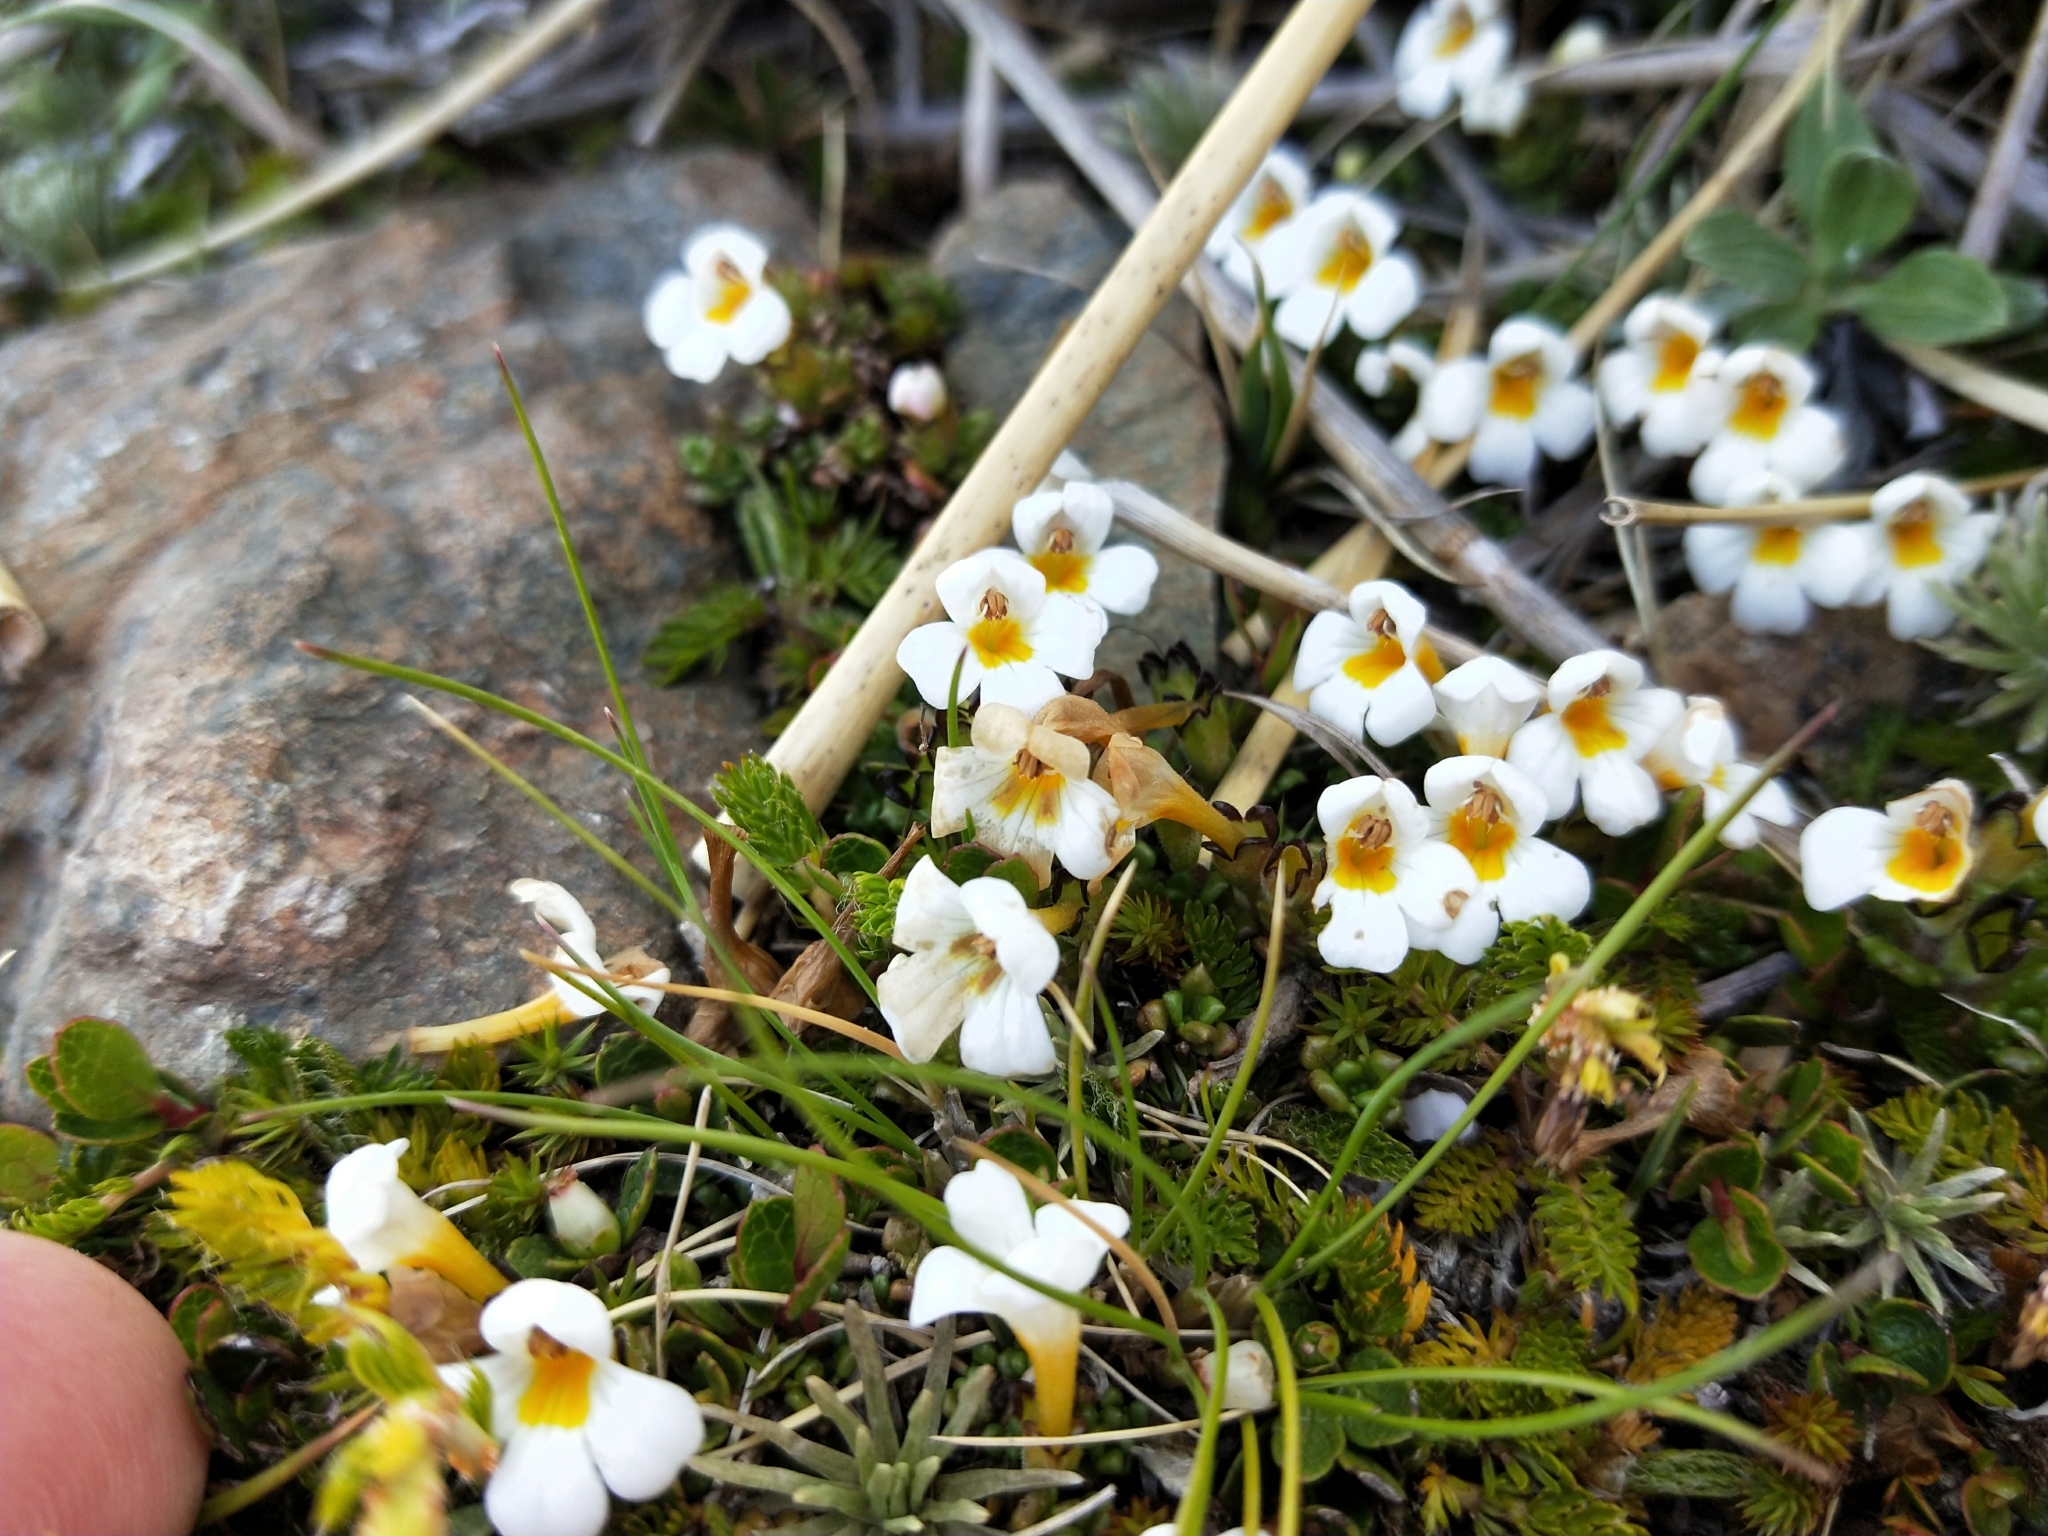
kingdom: Plantae
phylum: Tracheophyta
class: Magnoliopsida
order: Lamiales
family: Orobanchaceae
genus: Euphrasia
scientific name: Euphrasia revoluta
